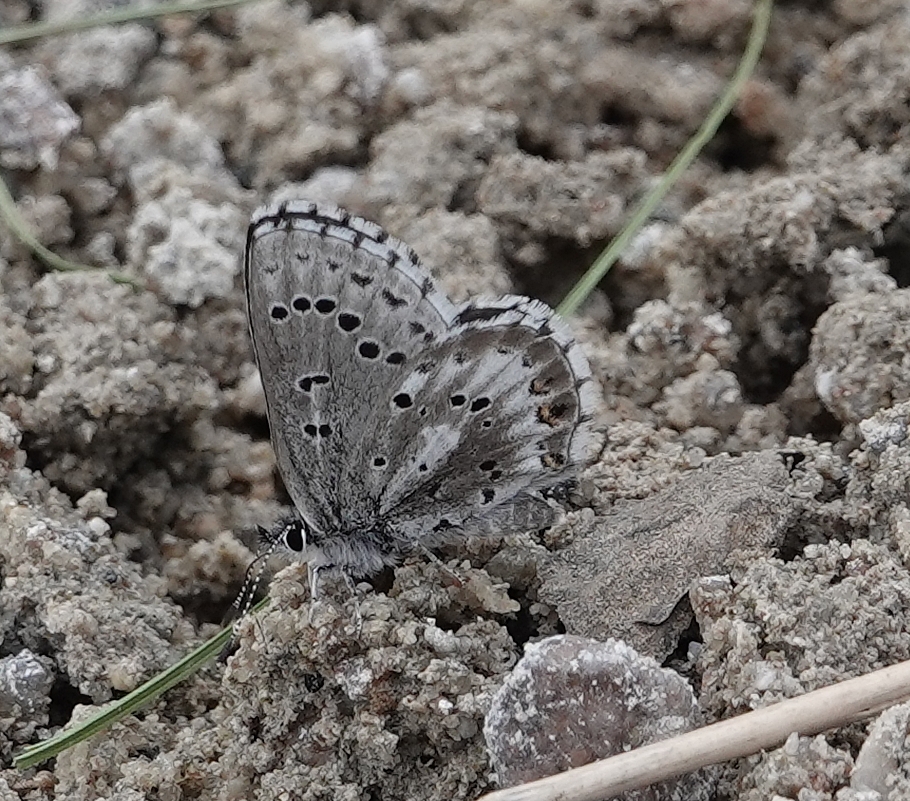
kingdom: Animalia
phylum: Arthropoda
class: Insecta
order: Lepidoptera
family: Lycaenidae
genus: Glaucopsyche
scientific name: Glaucopsyche piasus
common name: Arrowhead blue
